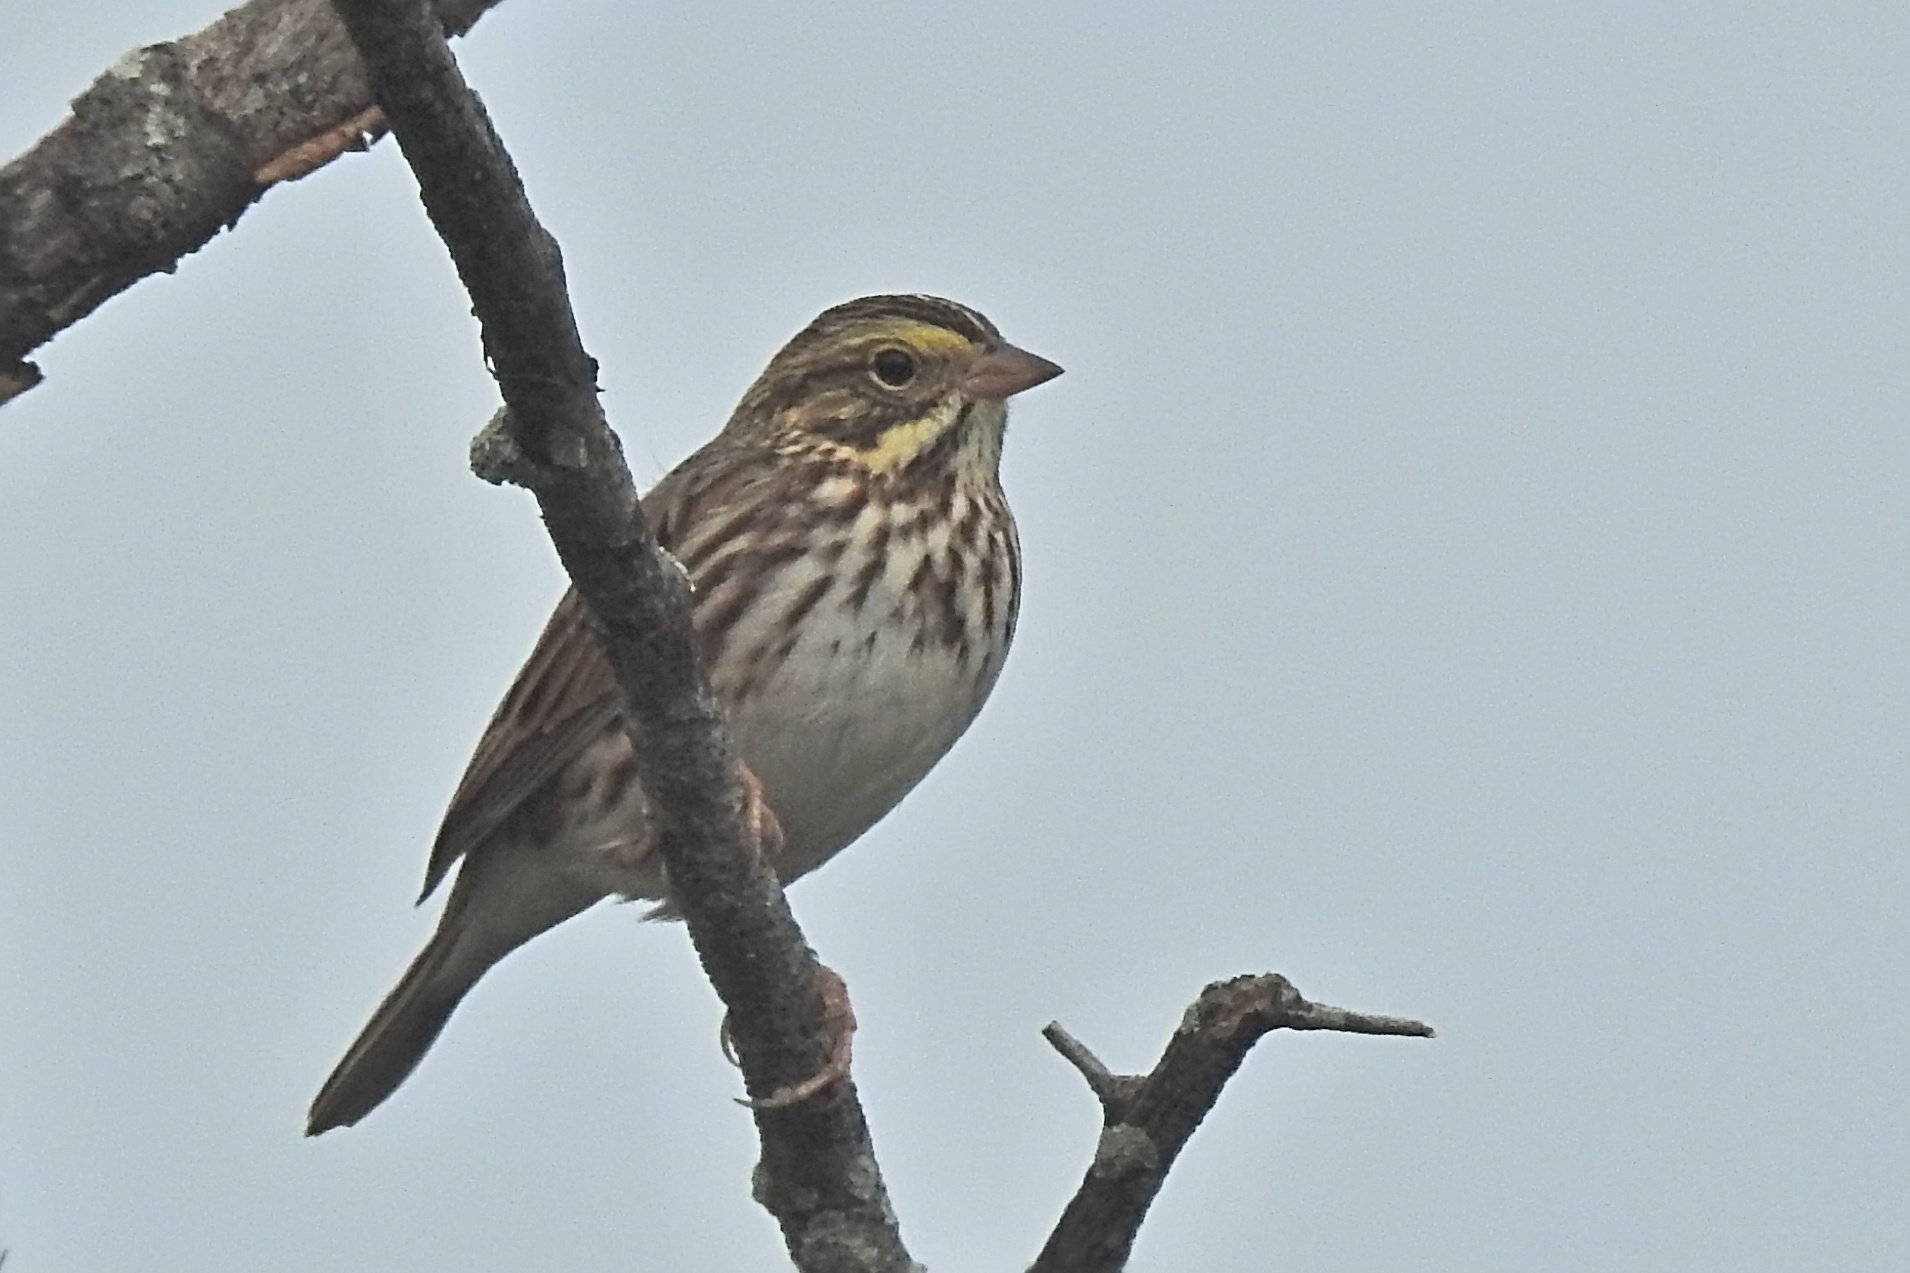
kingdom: Animalia
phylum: Chordata
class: Aves
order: Passeriformes
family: Passerellidae
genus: Passerculus
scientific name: Passerculus sandwichensis
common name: Savannah sparrow
